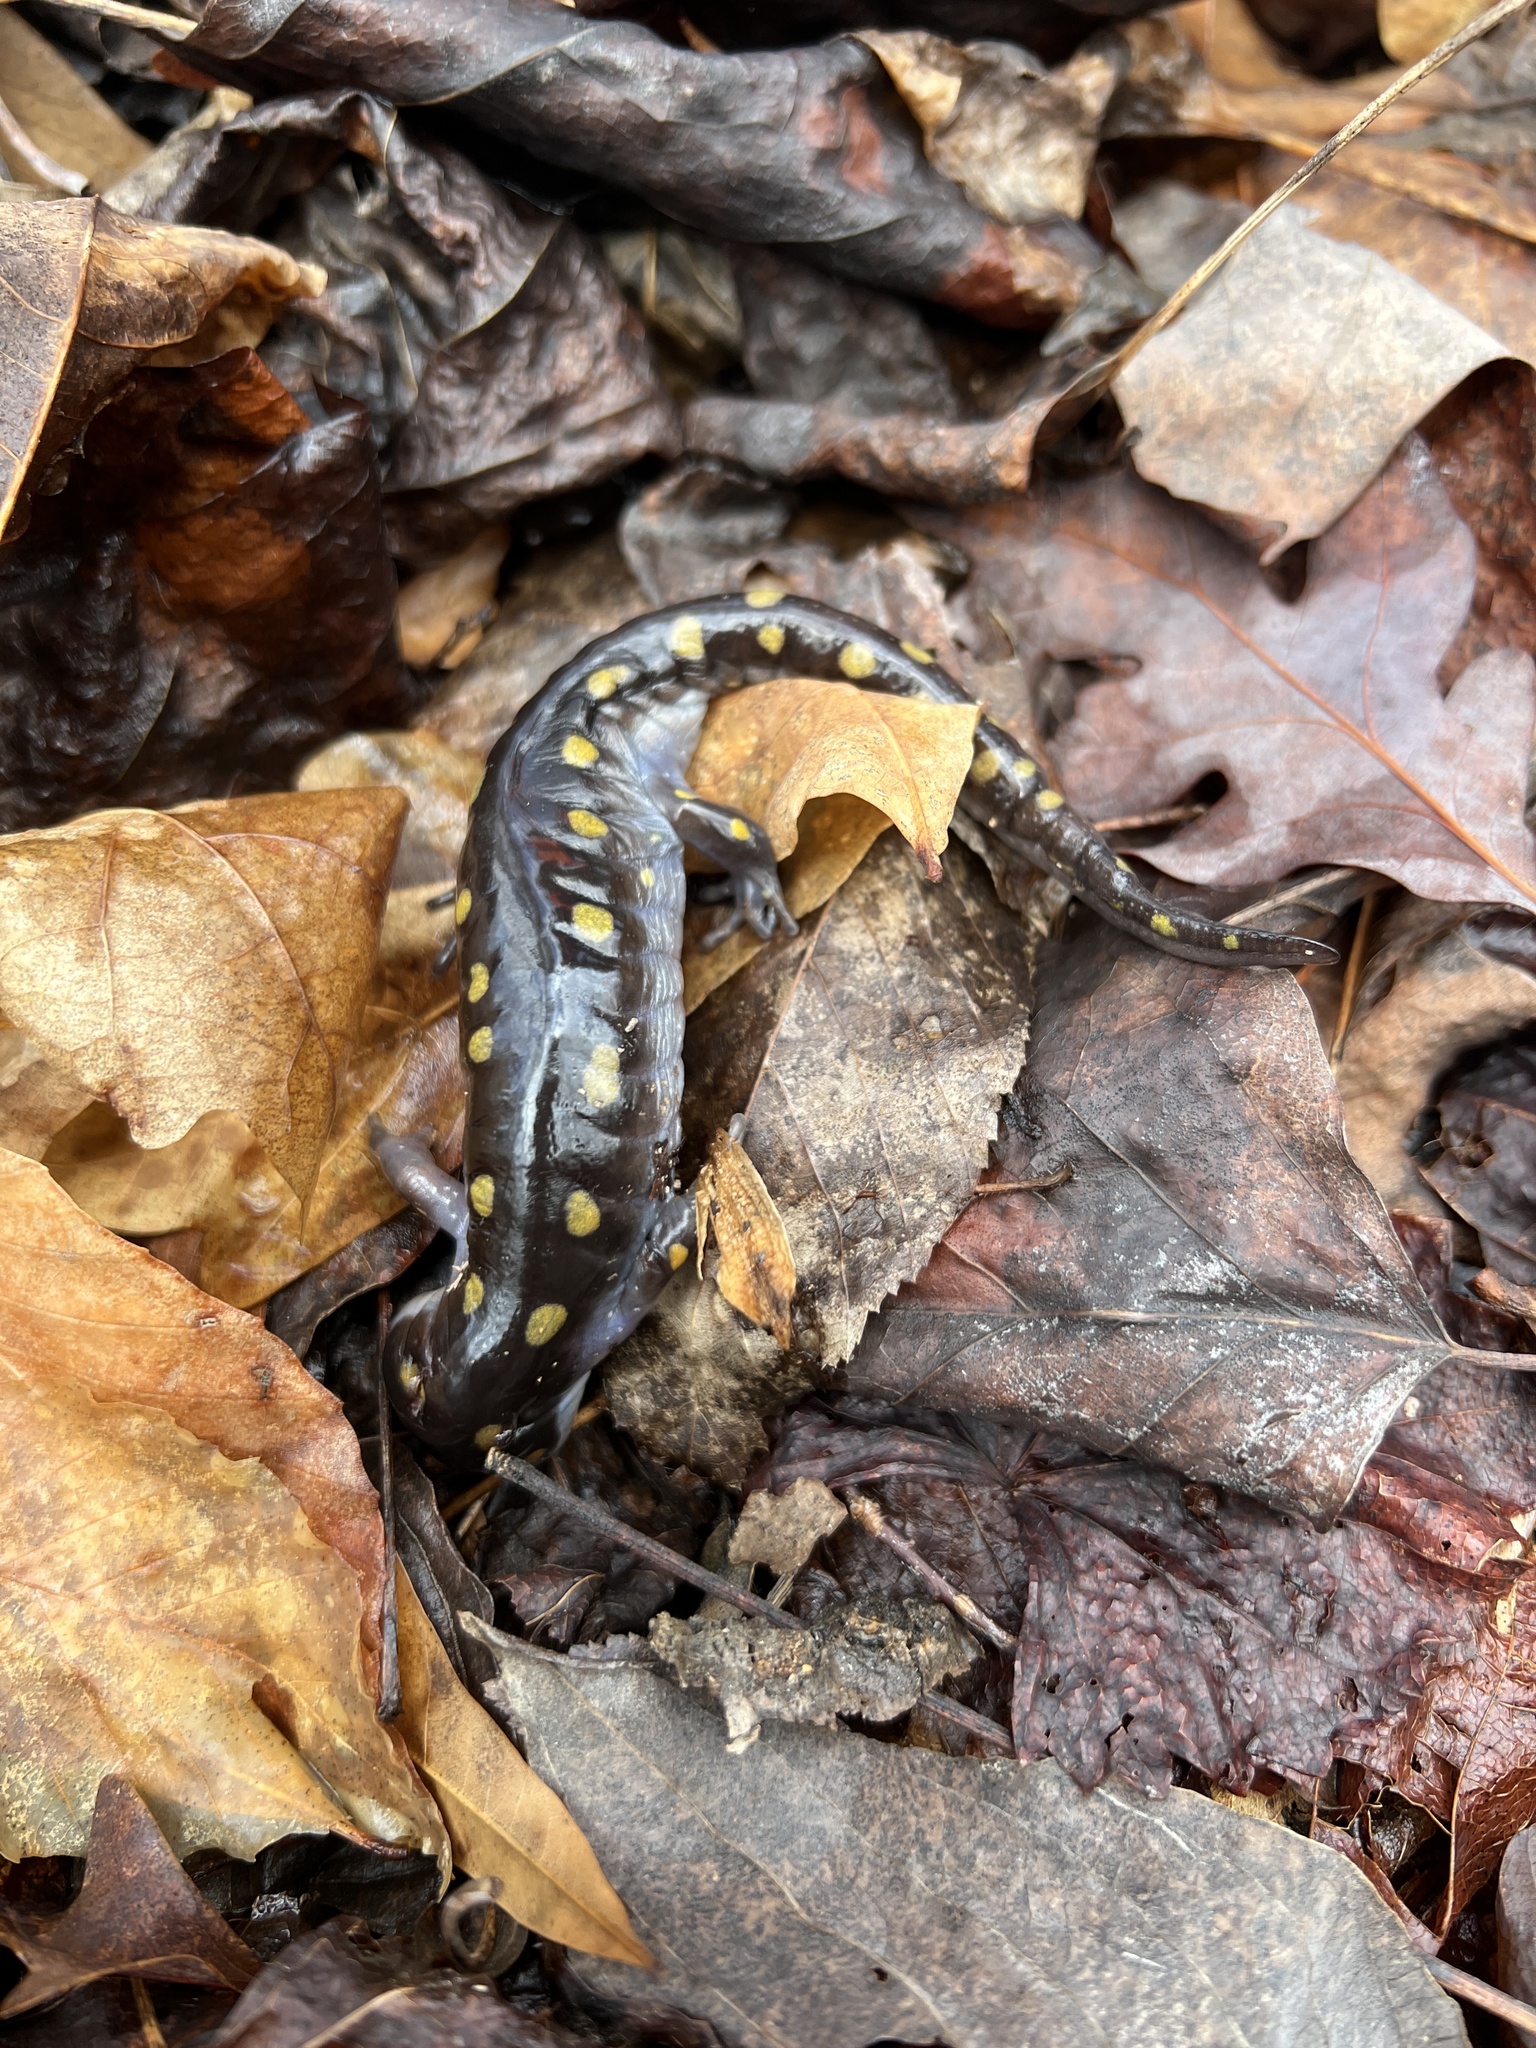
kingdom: Animalia
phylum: Chordata
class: Amphibia
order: Caudata
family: Ambystomatidae
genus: Ambystoma
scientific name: Ambystoma maculatum
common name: Spotted salamander
